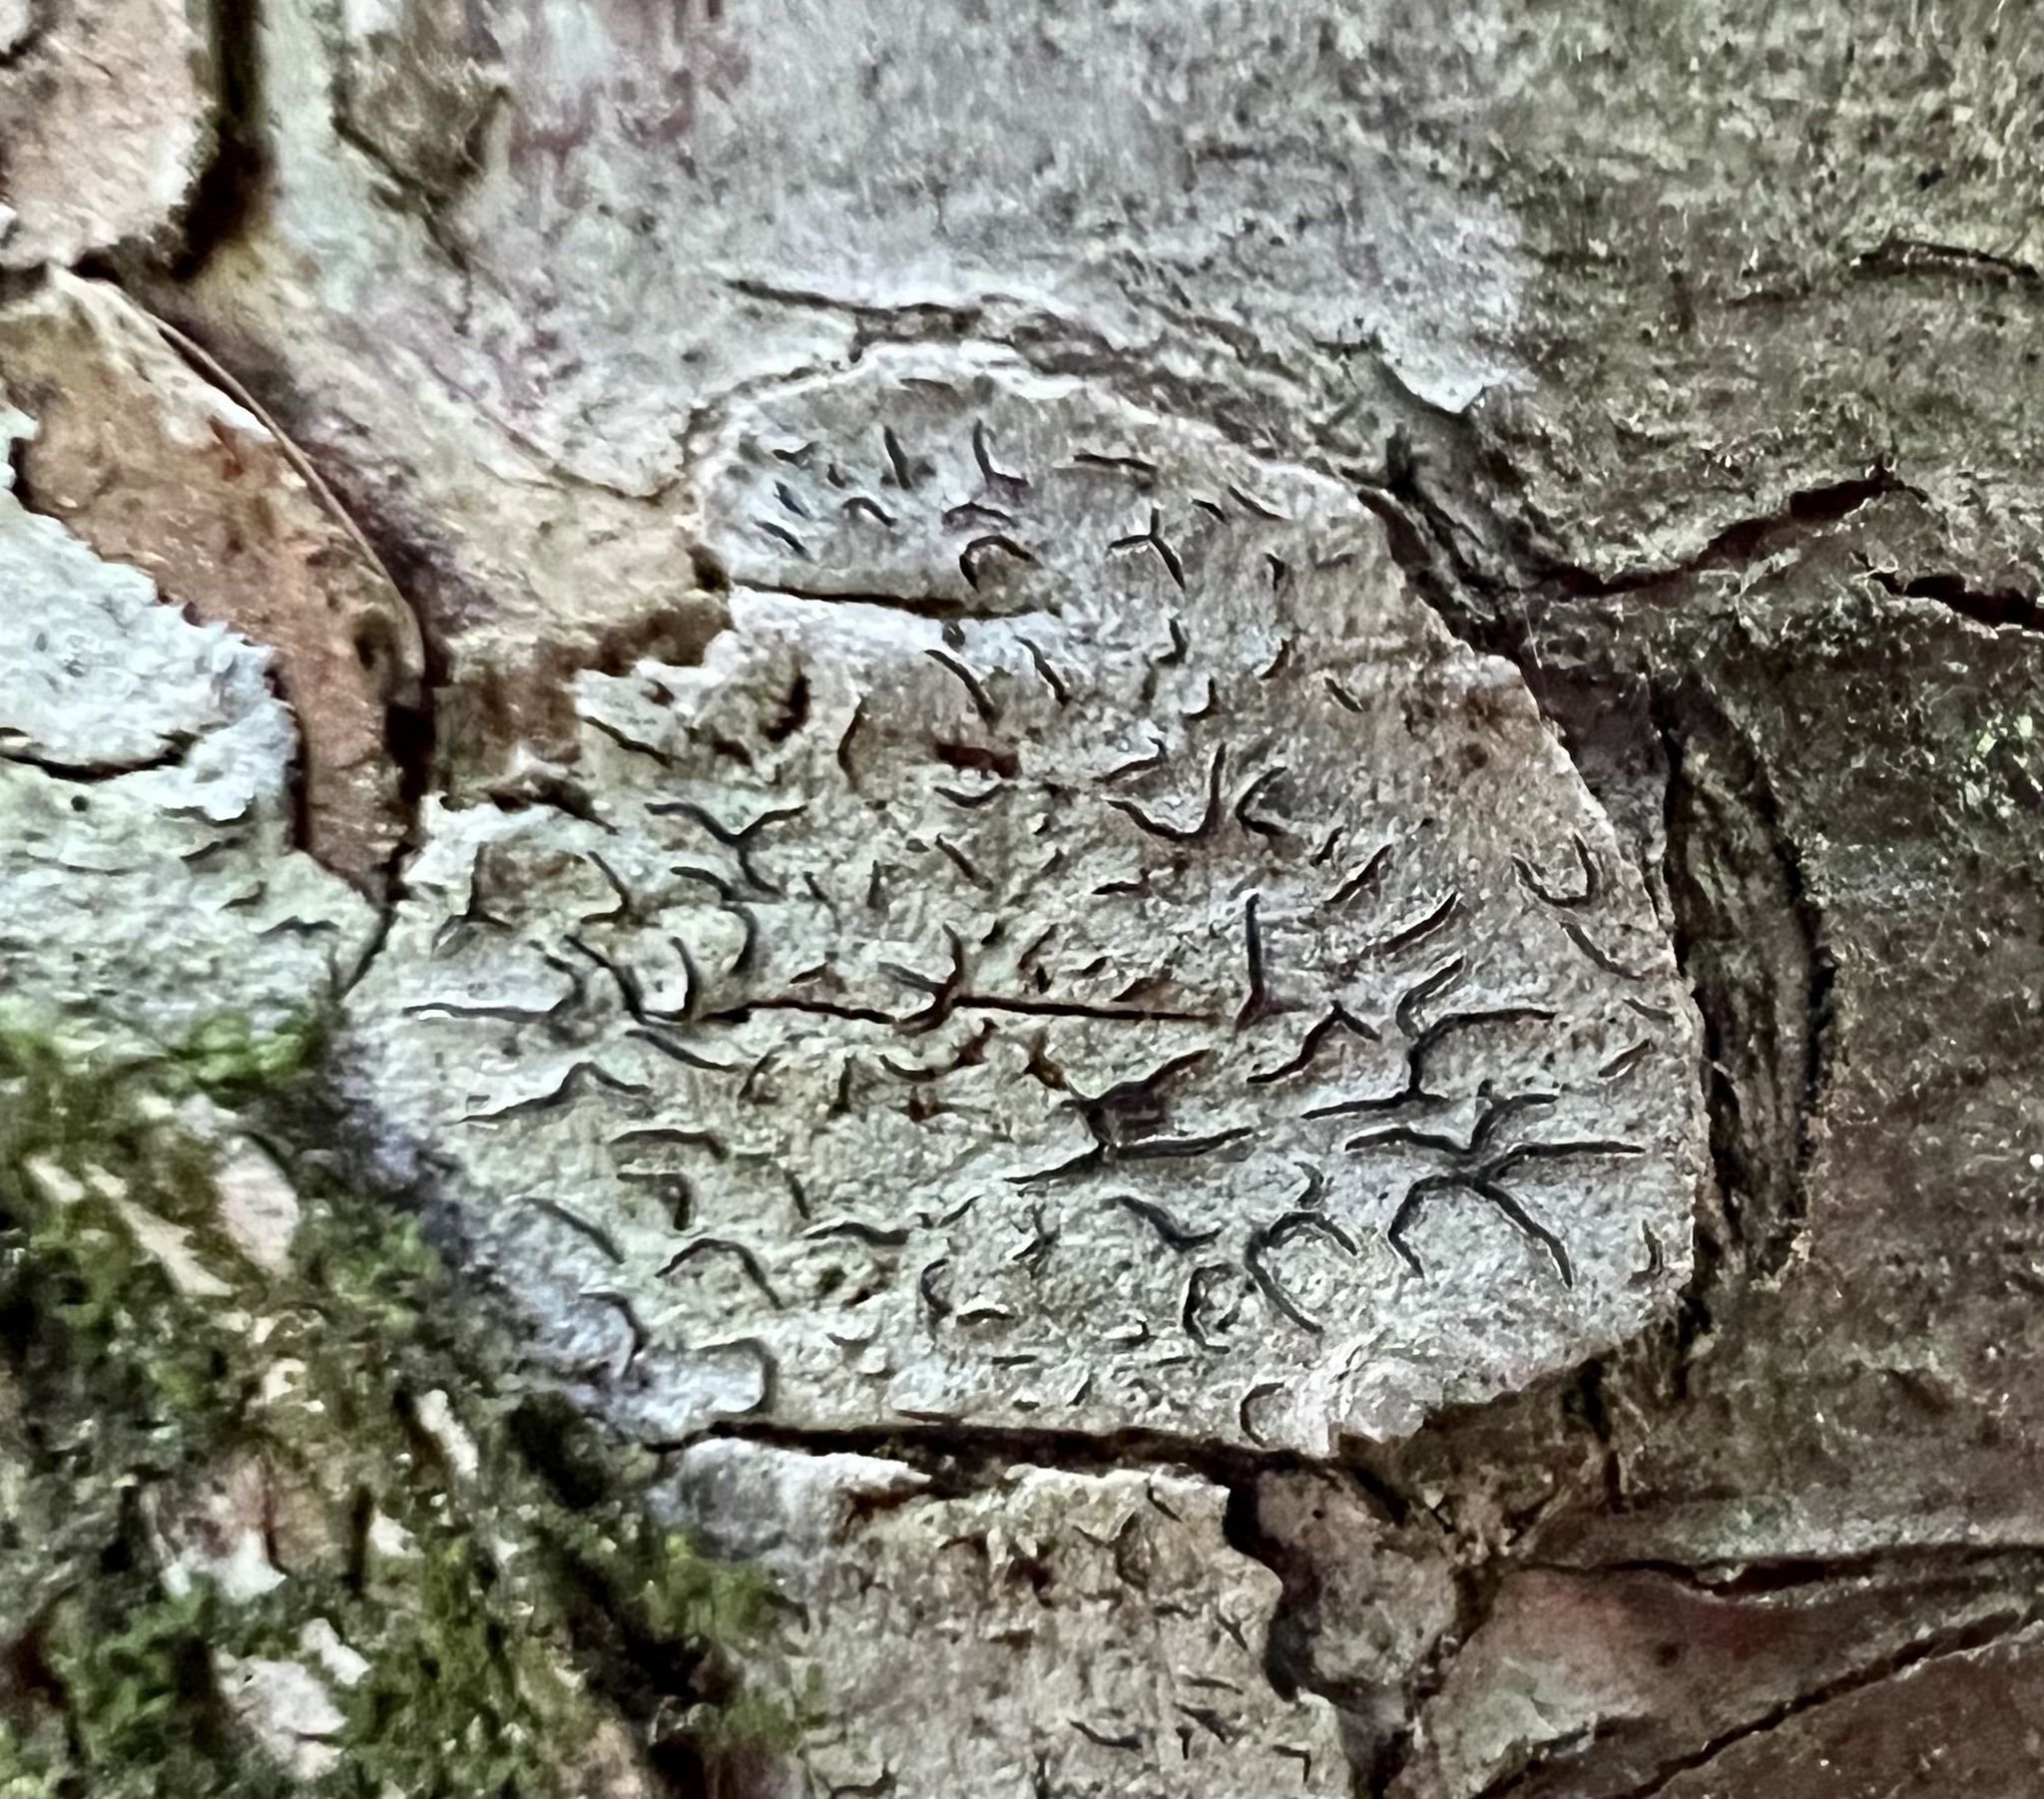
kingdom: Fungi
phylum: Ascomycota
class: Lecanoromycetes
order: Ostropales
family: Graphidaceae
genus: Graphis
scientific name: Graphis scripta
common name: Script lichen
